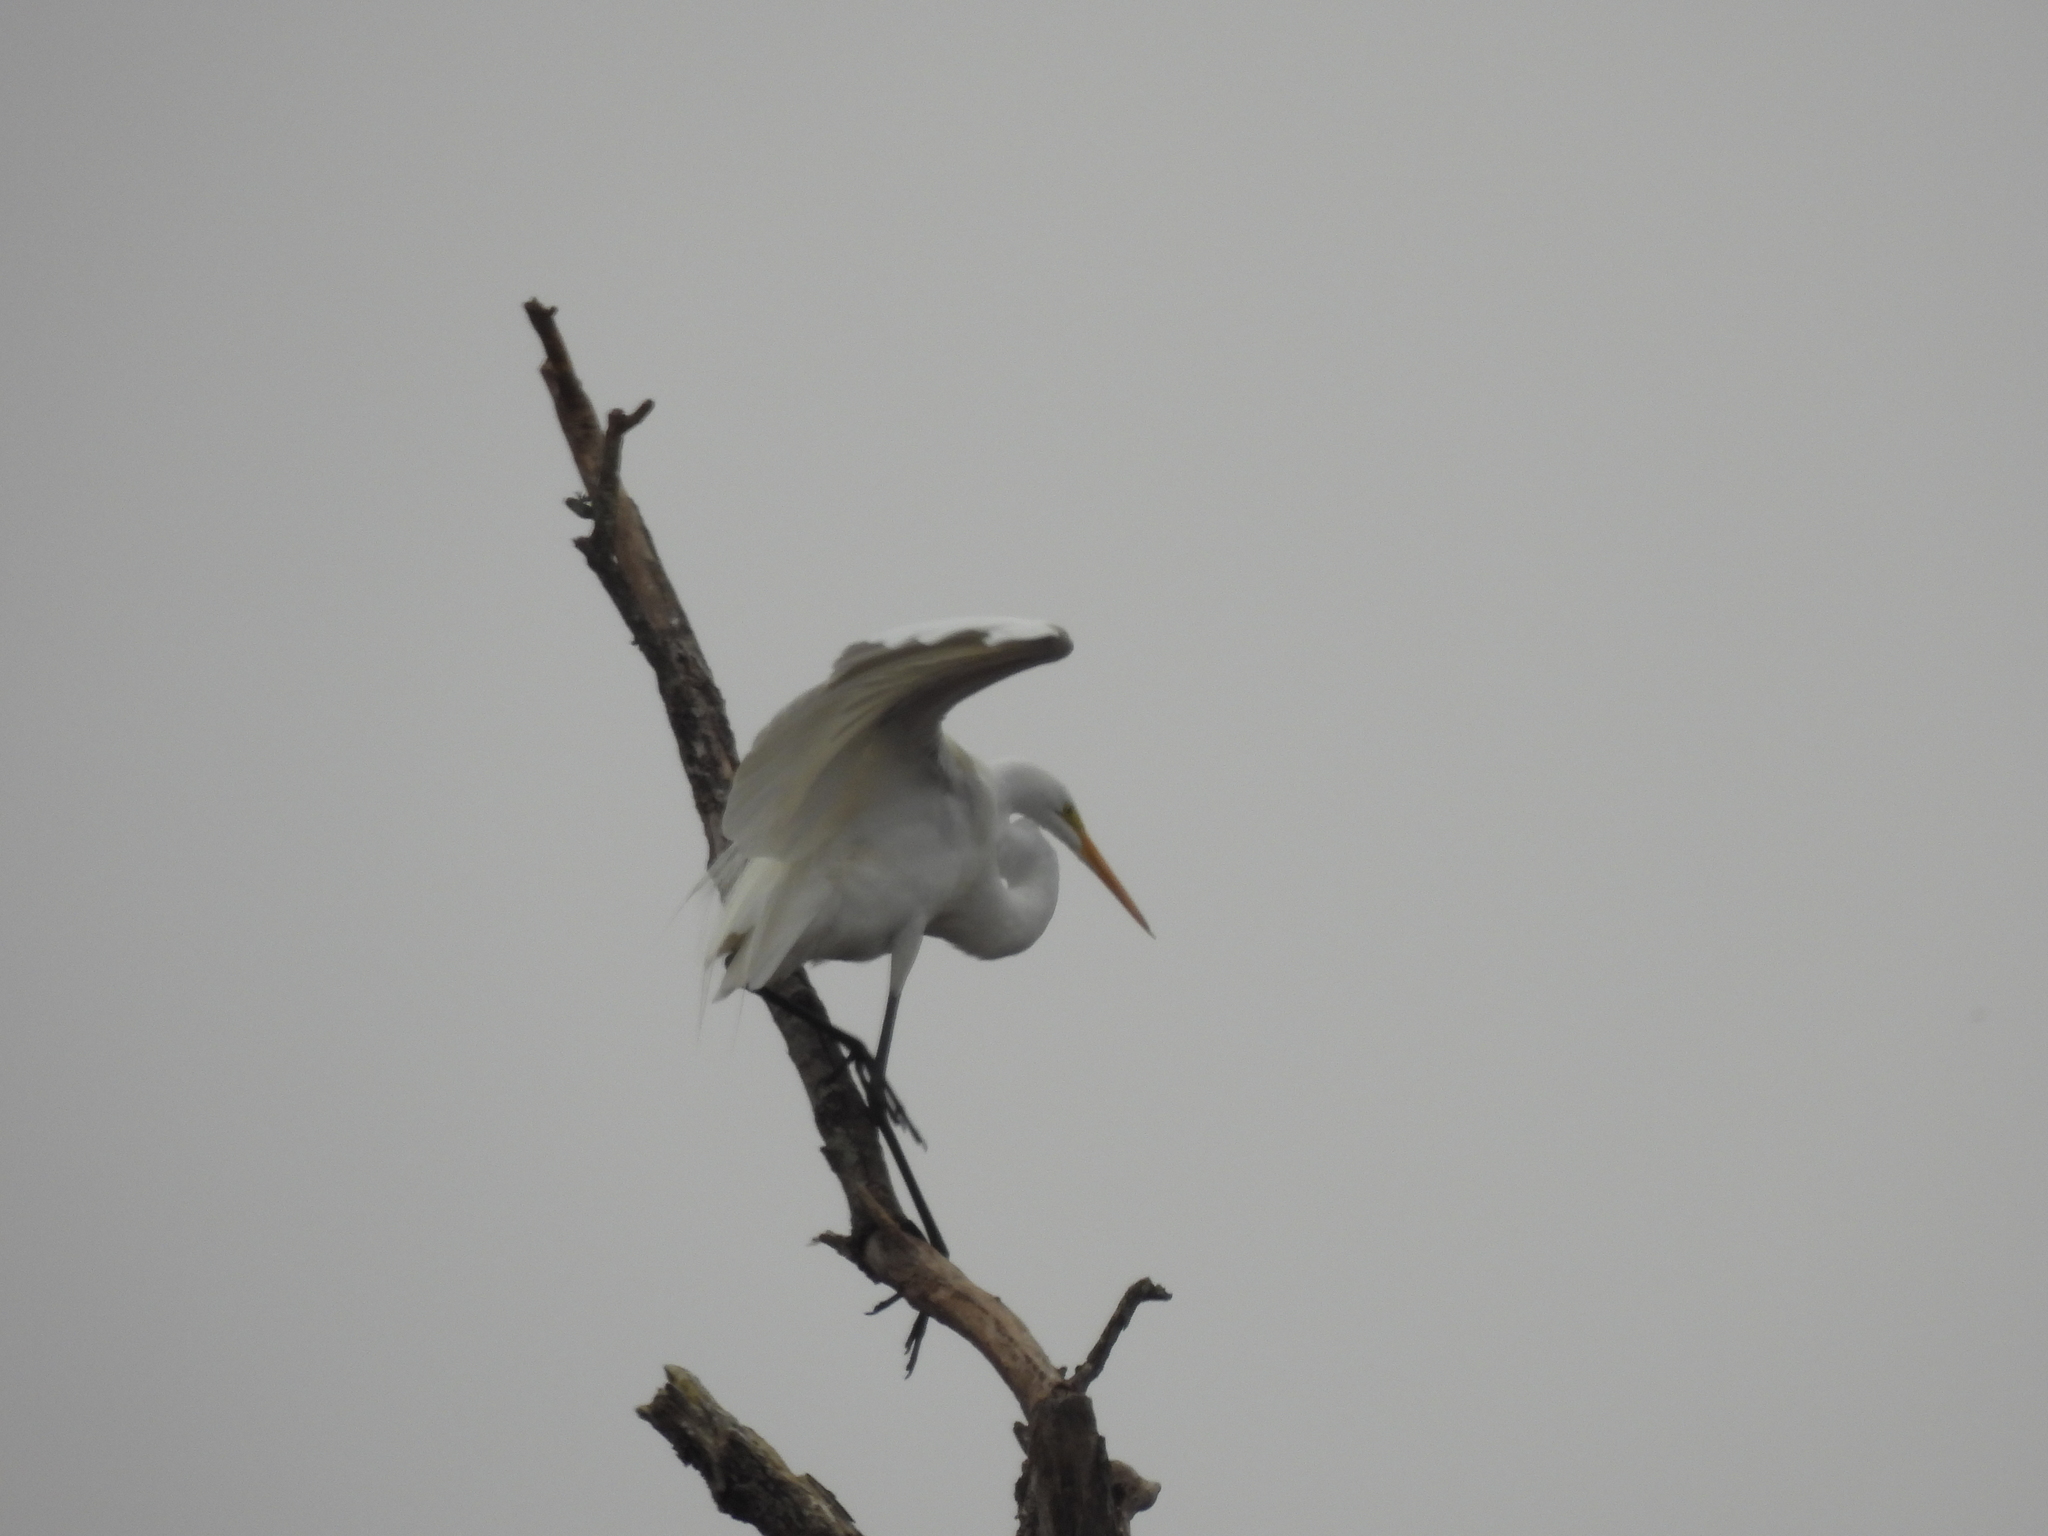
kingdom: Animalia
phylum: Chordata
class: Aves
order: Pelecaniformes
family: Ardeidae
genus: Ardea
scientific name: Ardea alba
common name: Great egret
